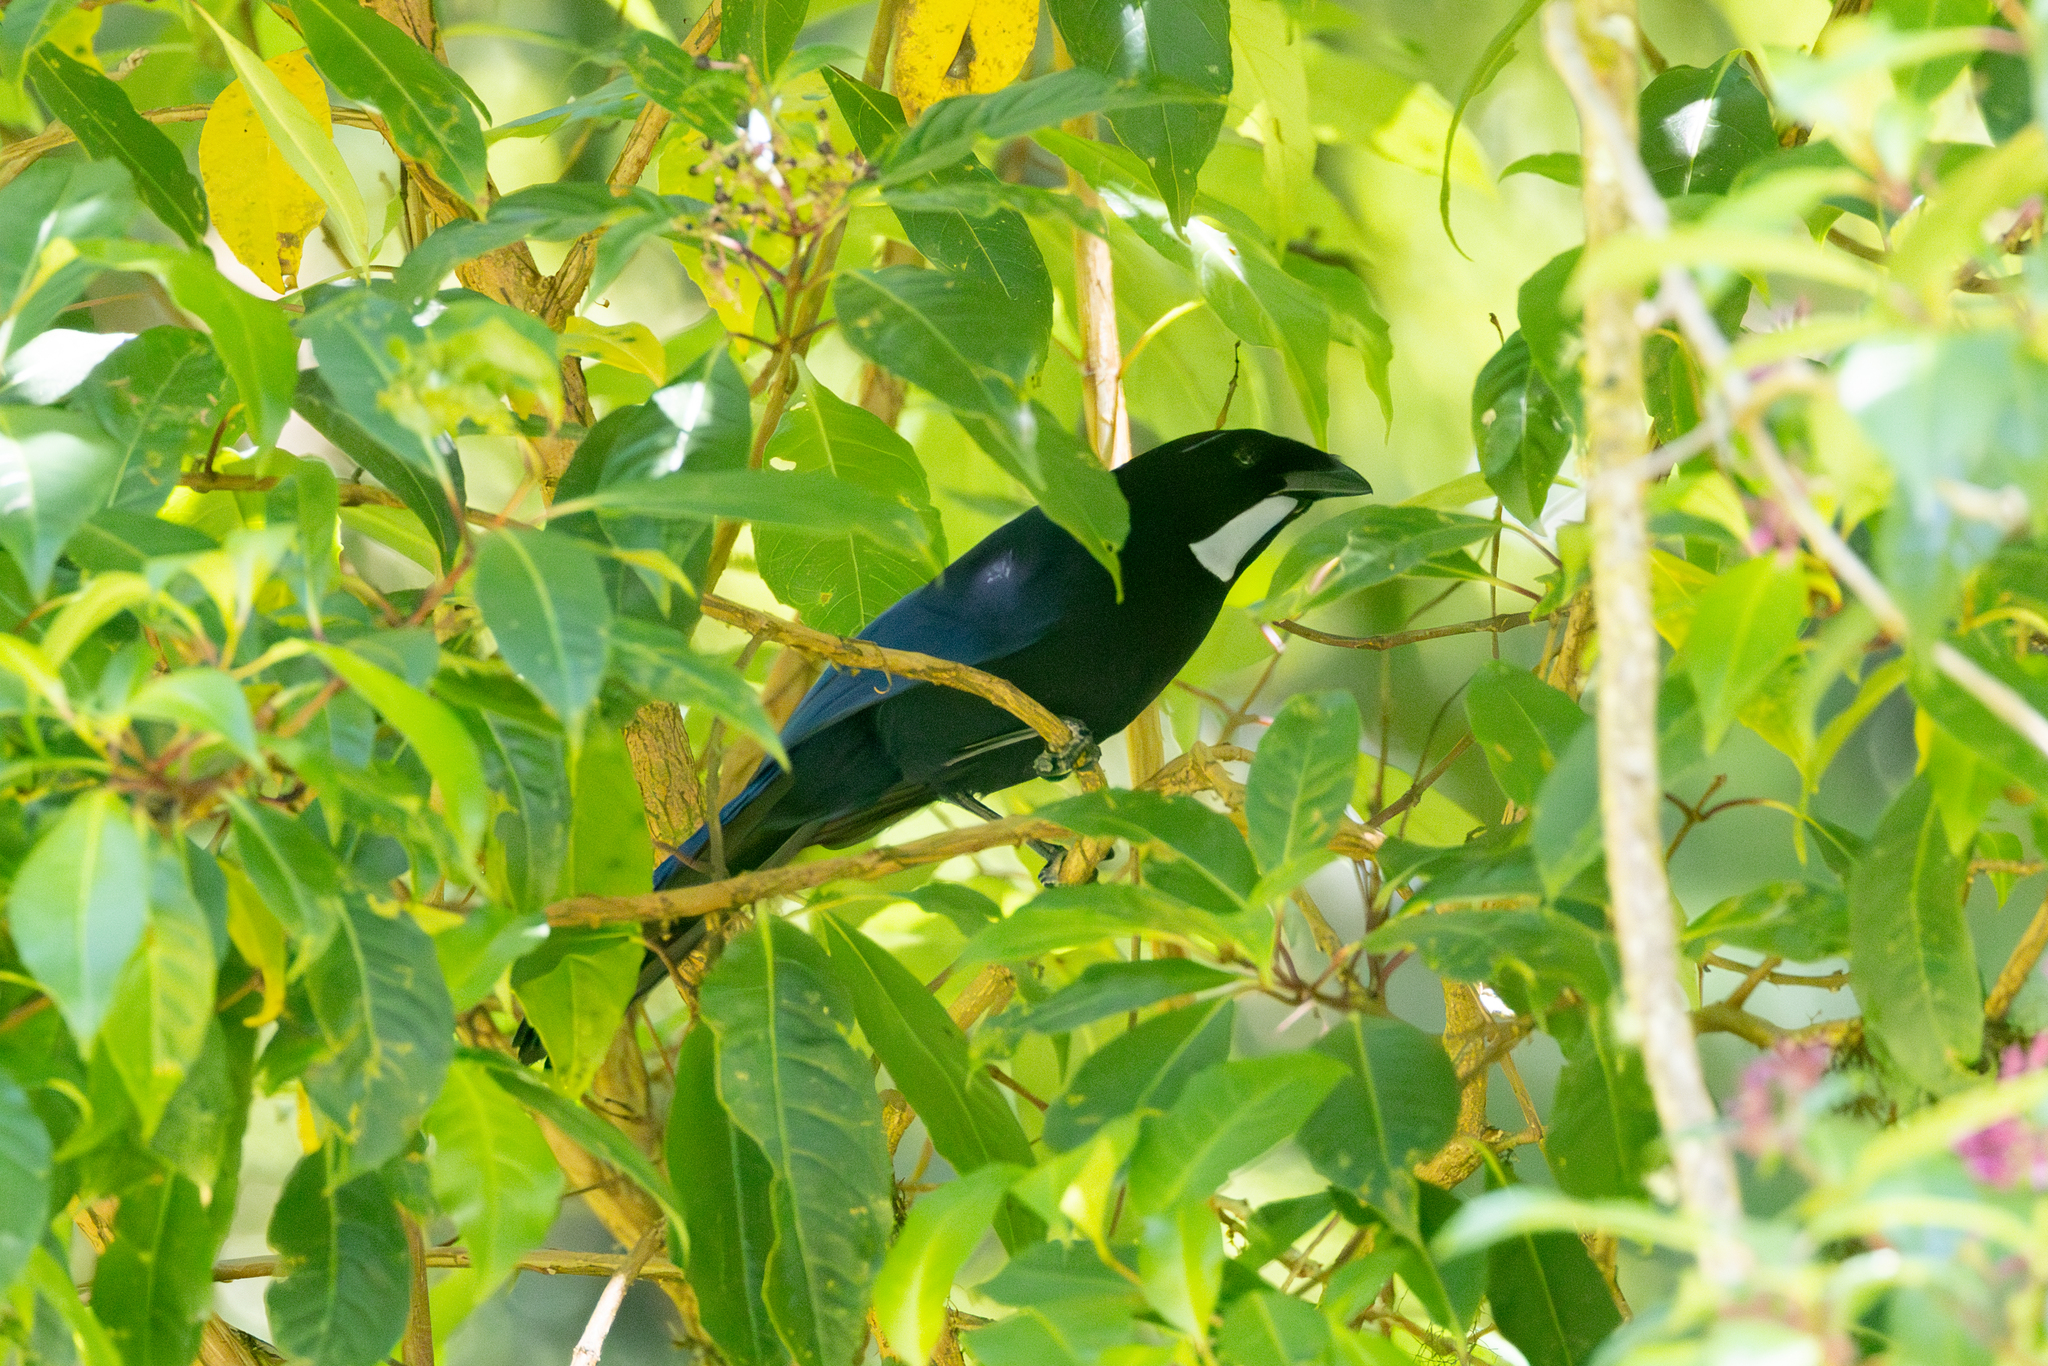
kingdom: Animalia
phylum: Chordata
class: Aves
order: Passeriformes
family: Corvidae
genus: Cyanolyca
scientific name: Cyanolyca argentigula
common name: Silvery-throated jay
